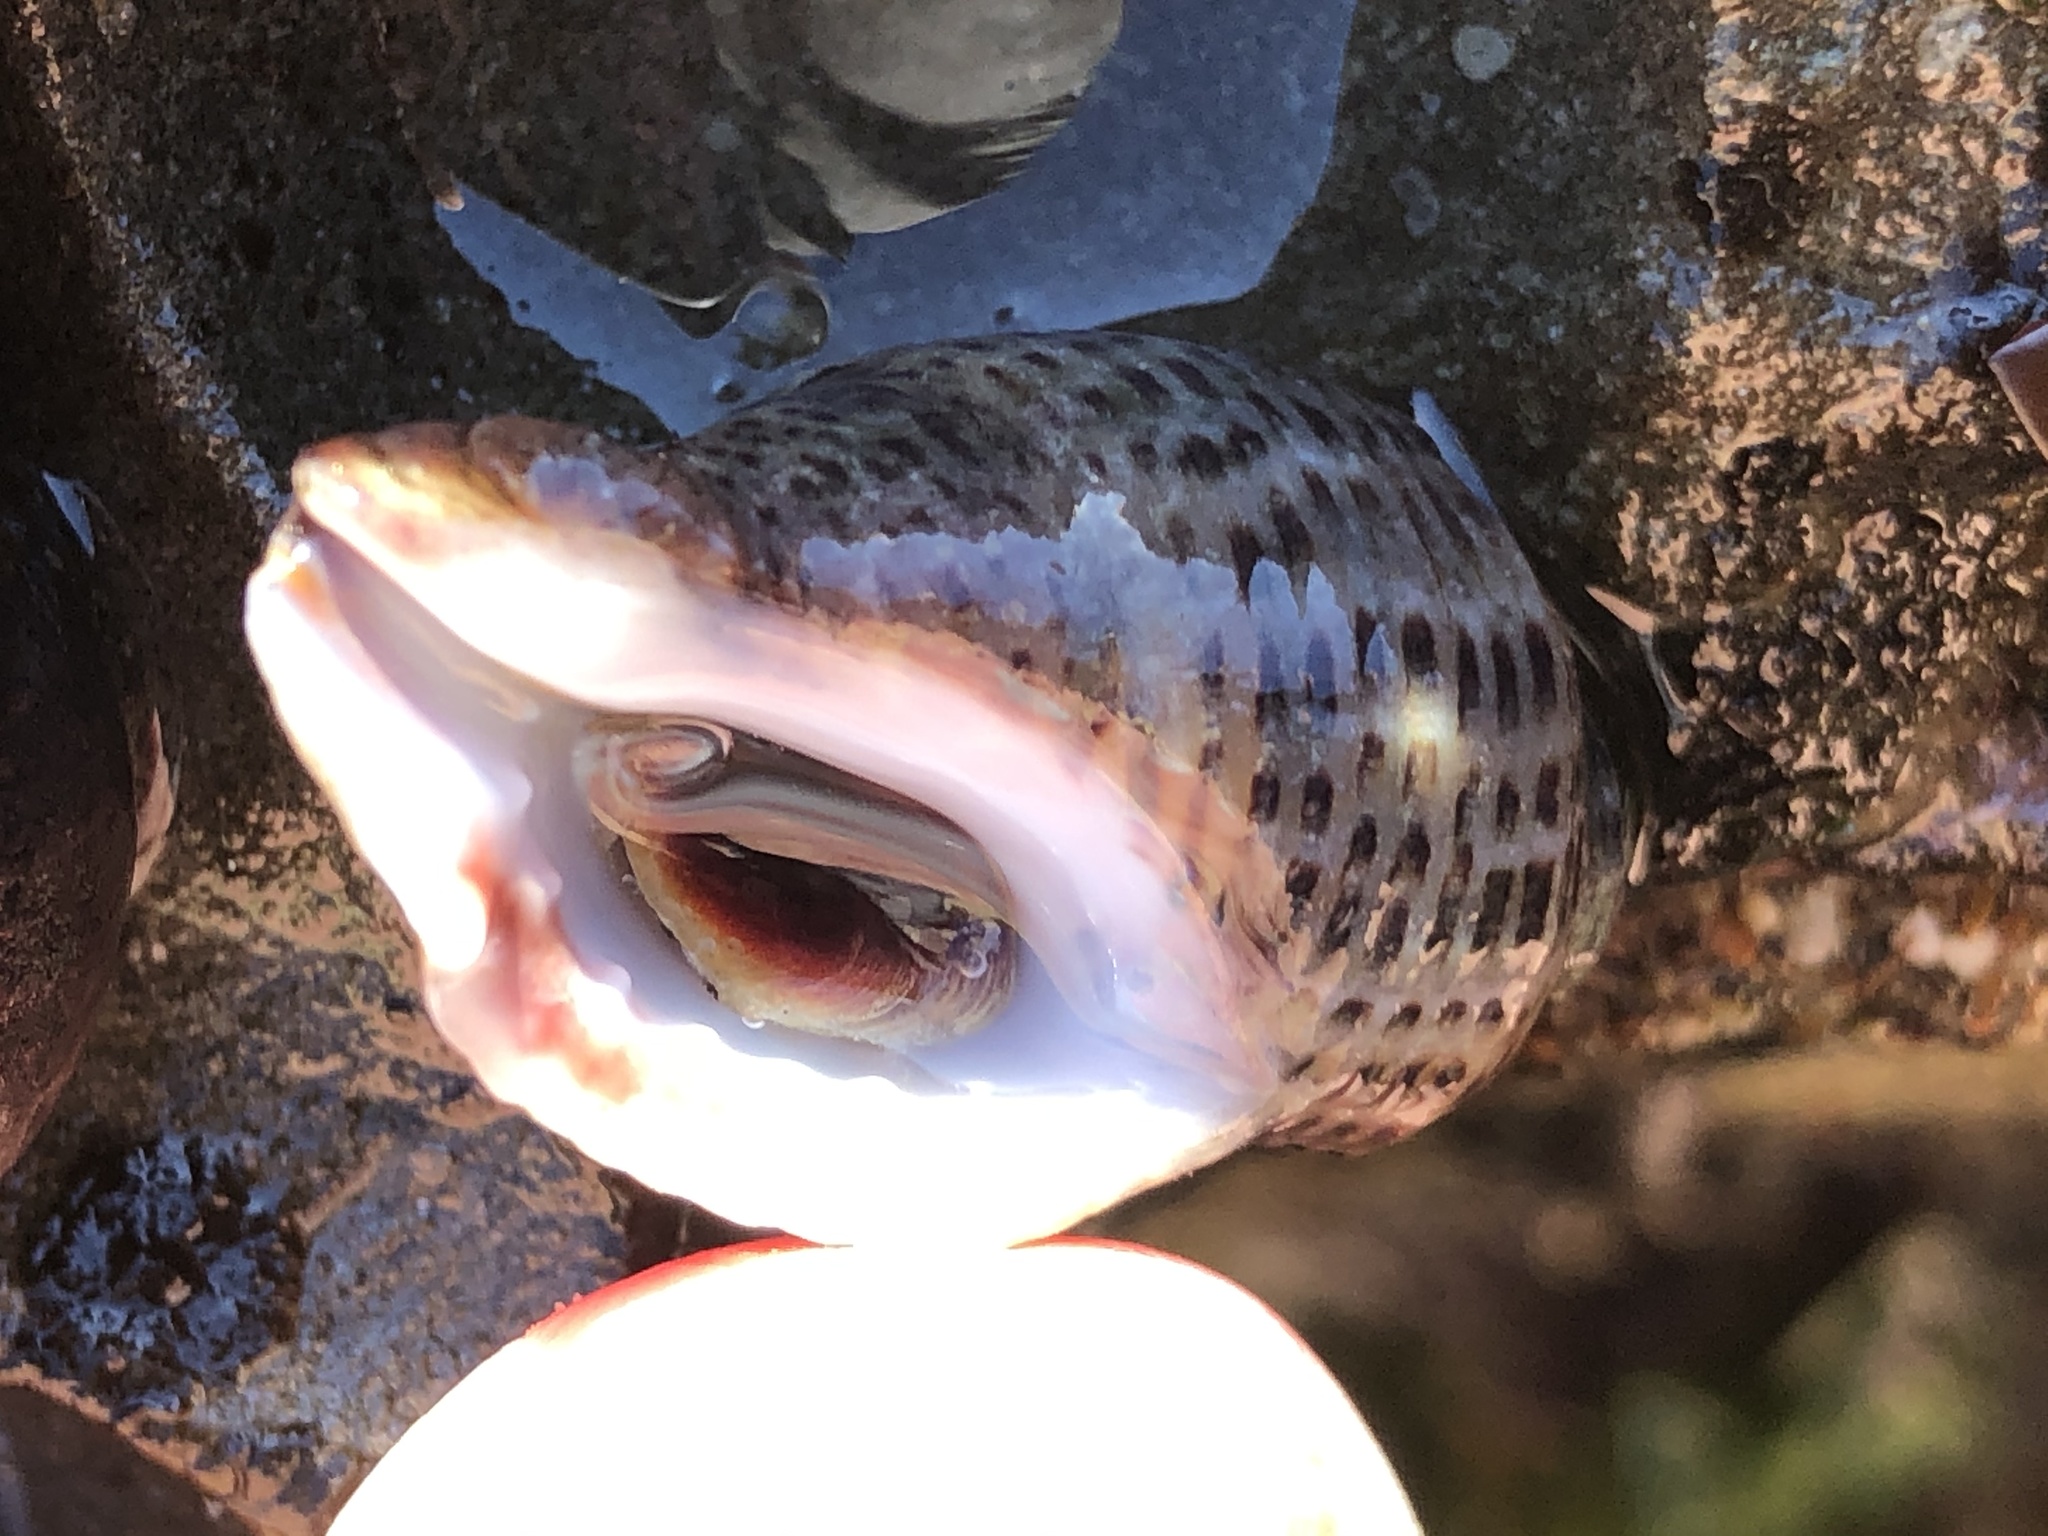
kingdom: Animalia
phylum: Mollusca
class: Gastropoda
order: Neogastropoda
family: Muricidae
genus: Acanthinucella
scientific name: Acanthinucella spirata
